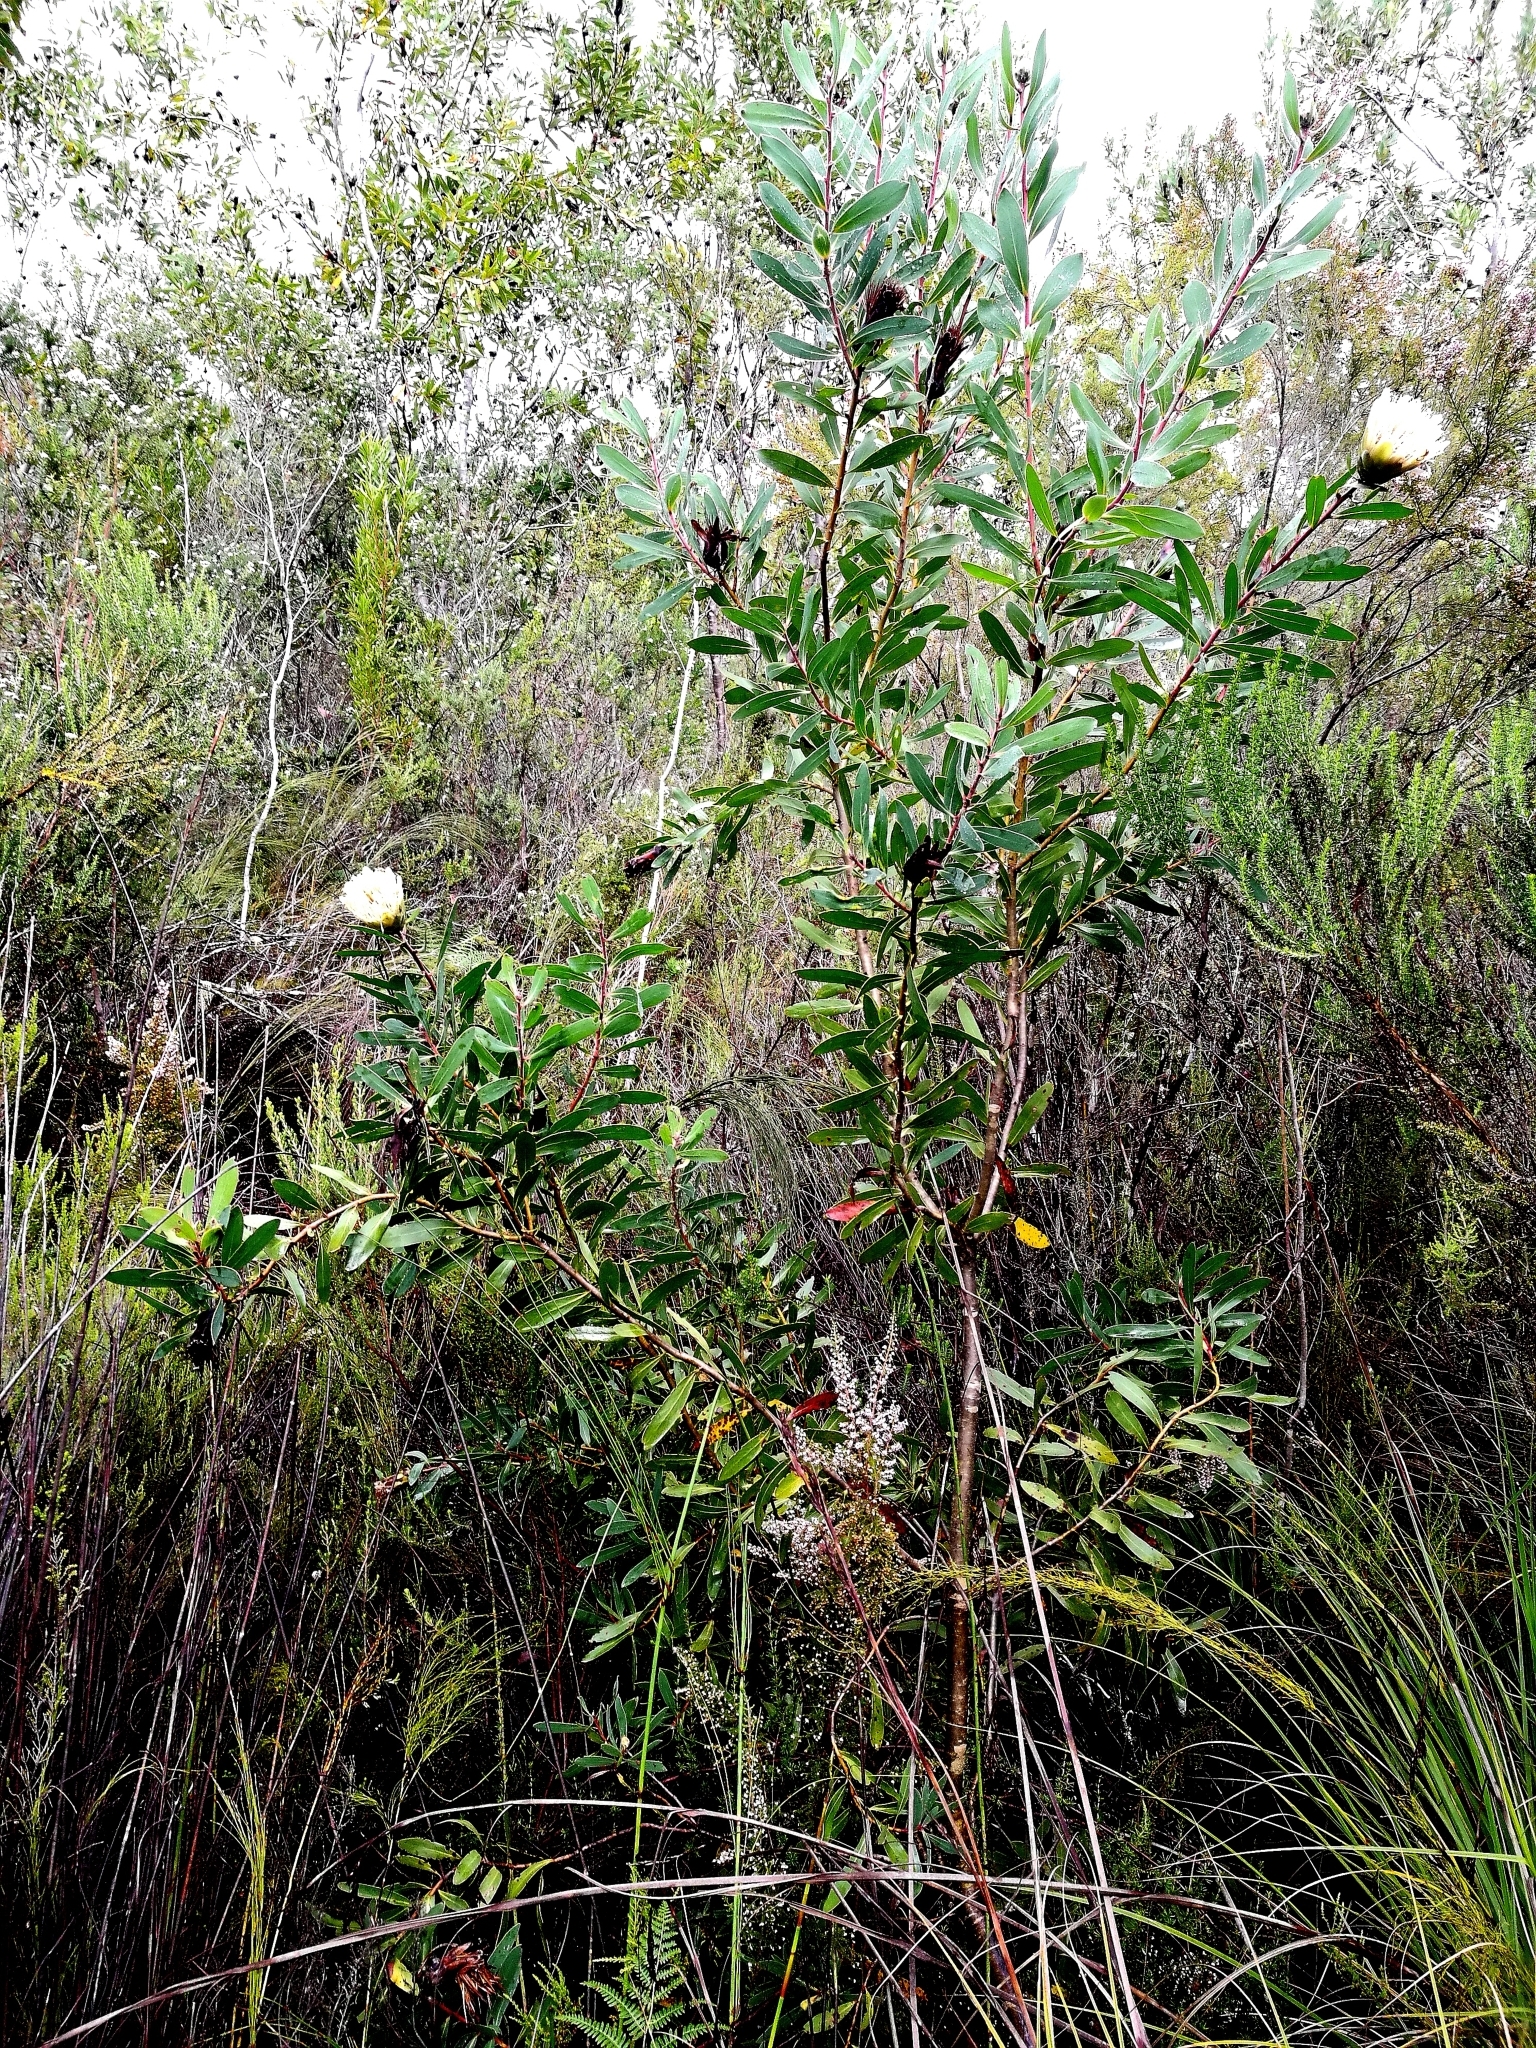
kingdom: Plantae
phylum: Tracheophyta
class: Magnoliopsida
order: Proteales
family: Proteaceae
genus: Protea
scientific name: Protea mundii
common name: Forest sugarbush
